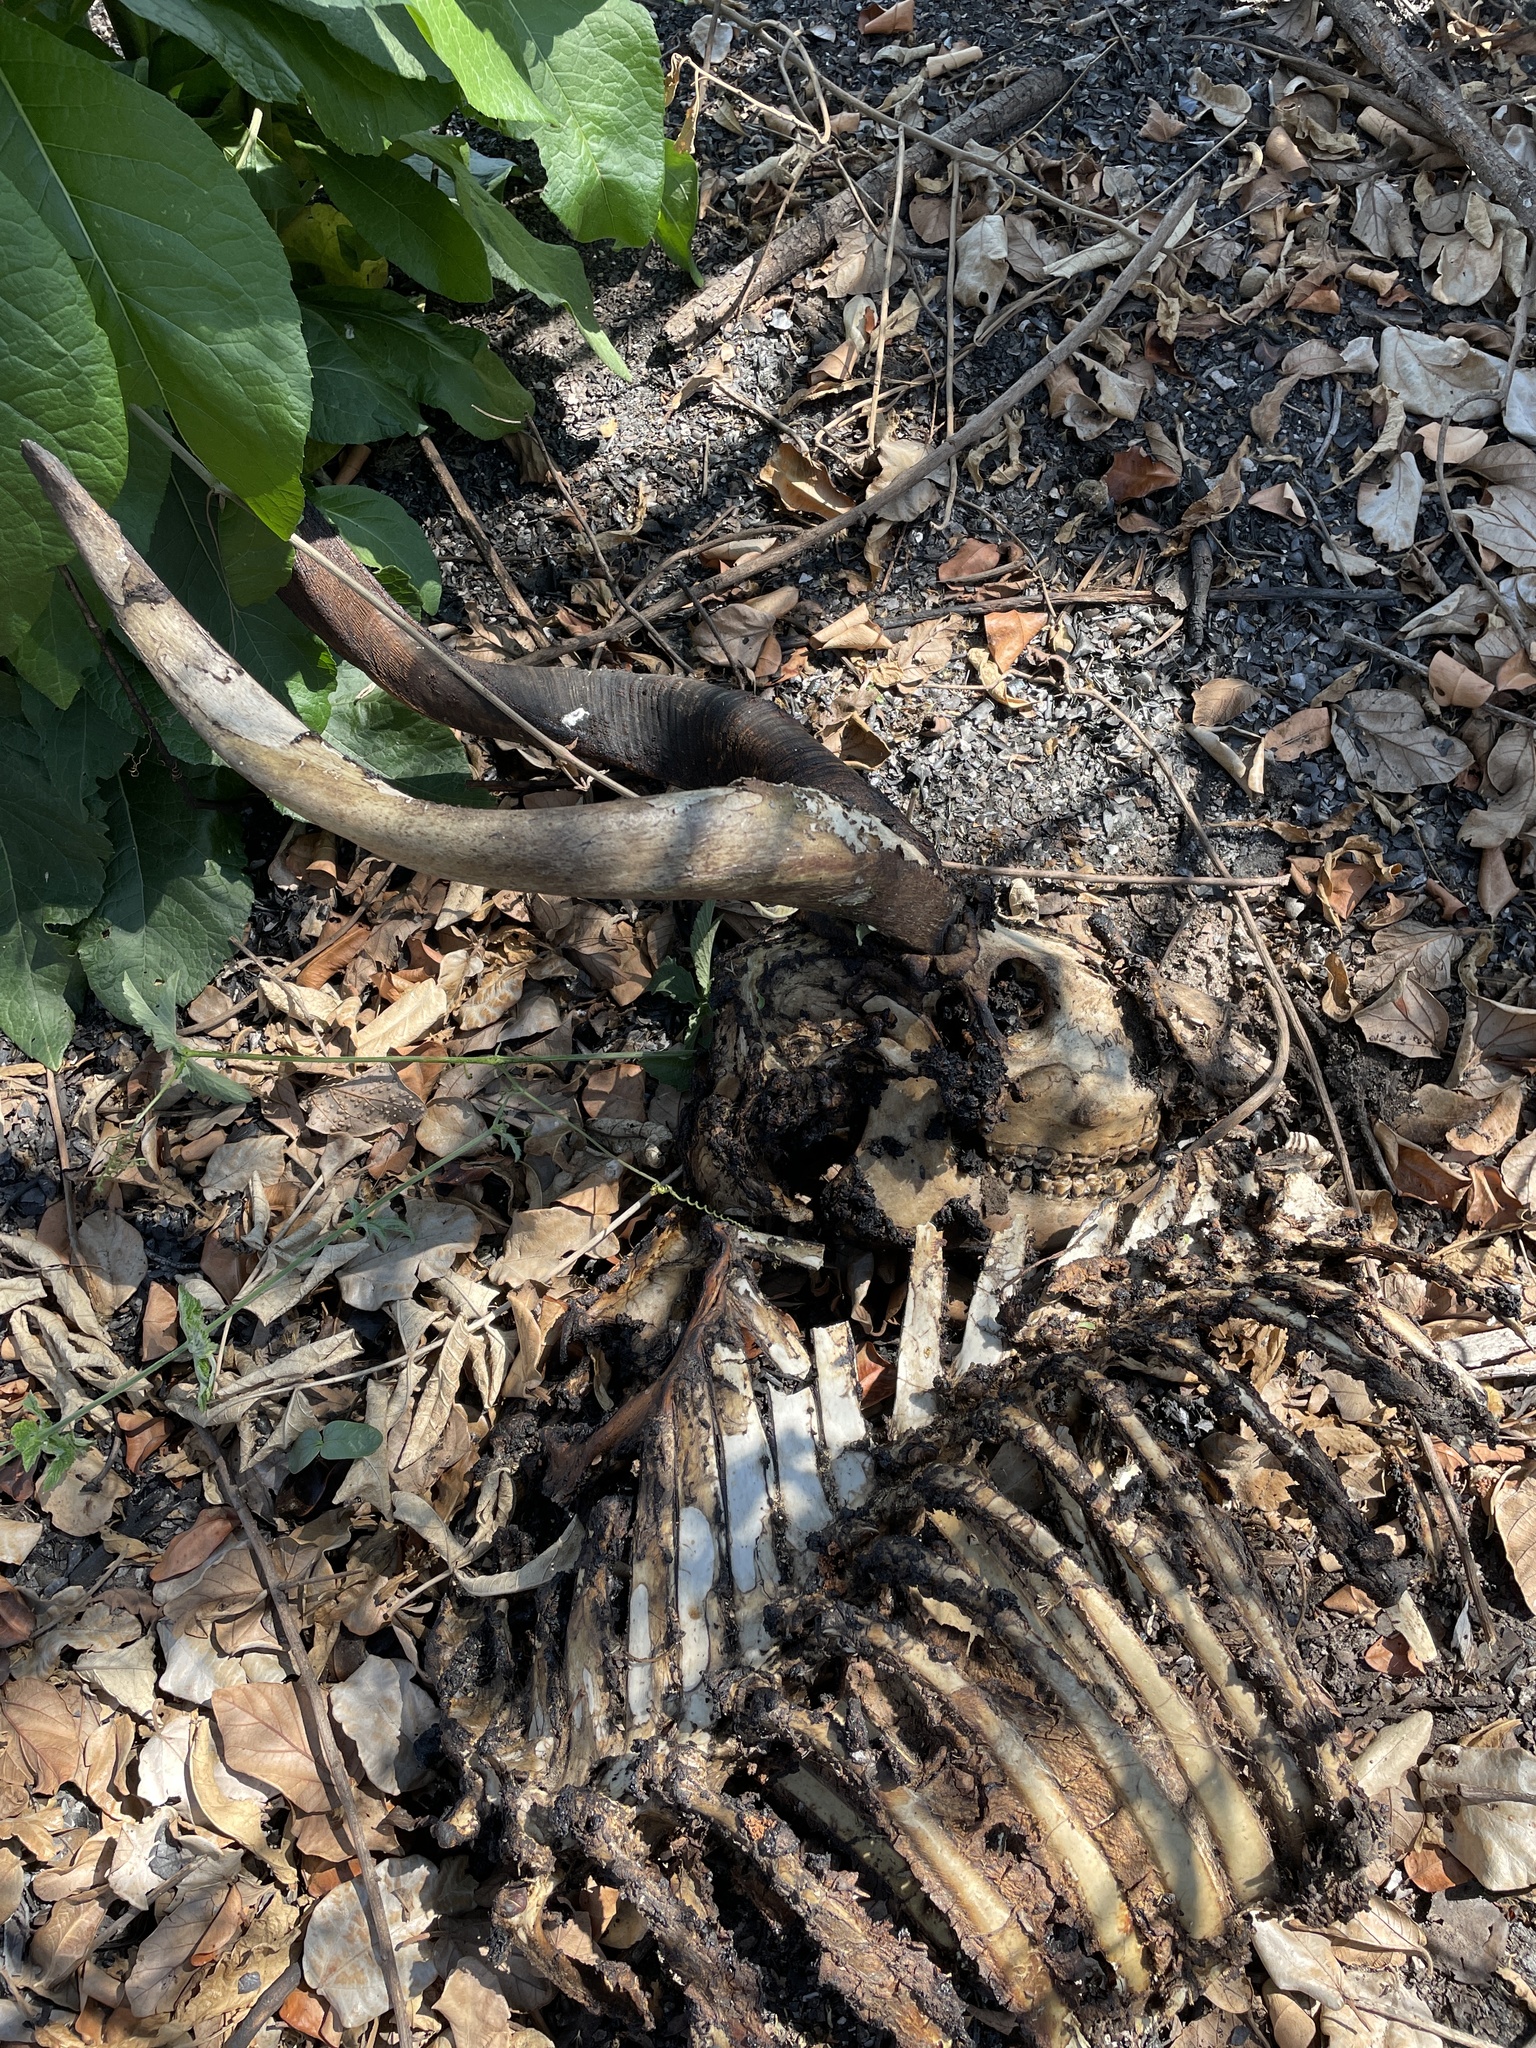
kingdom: Animalia
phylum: Chordata
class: Mammalia
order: Artiodactyla
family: Bovidae
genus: Tragelaphus
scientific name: Tragelaphus spekii
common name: Sitatunga
